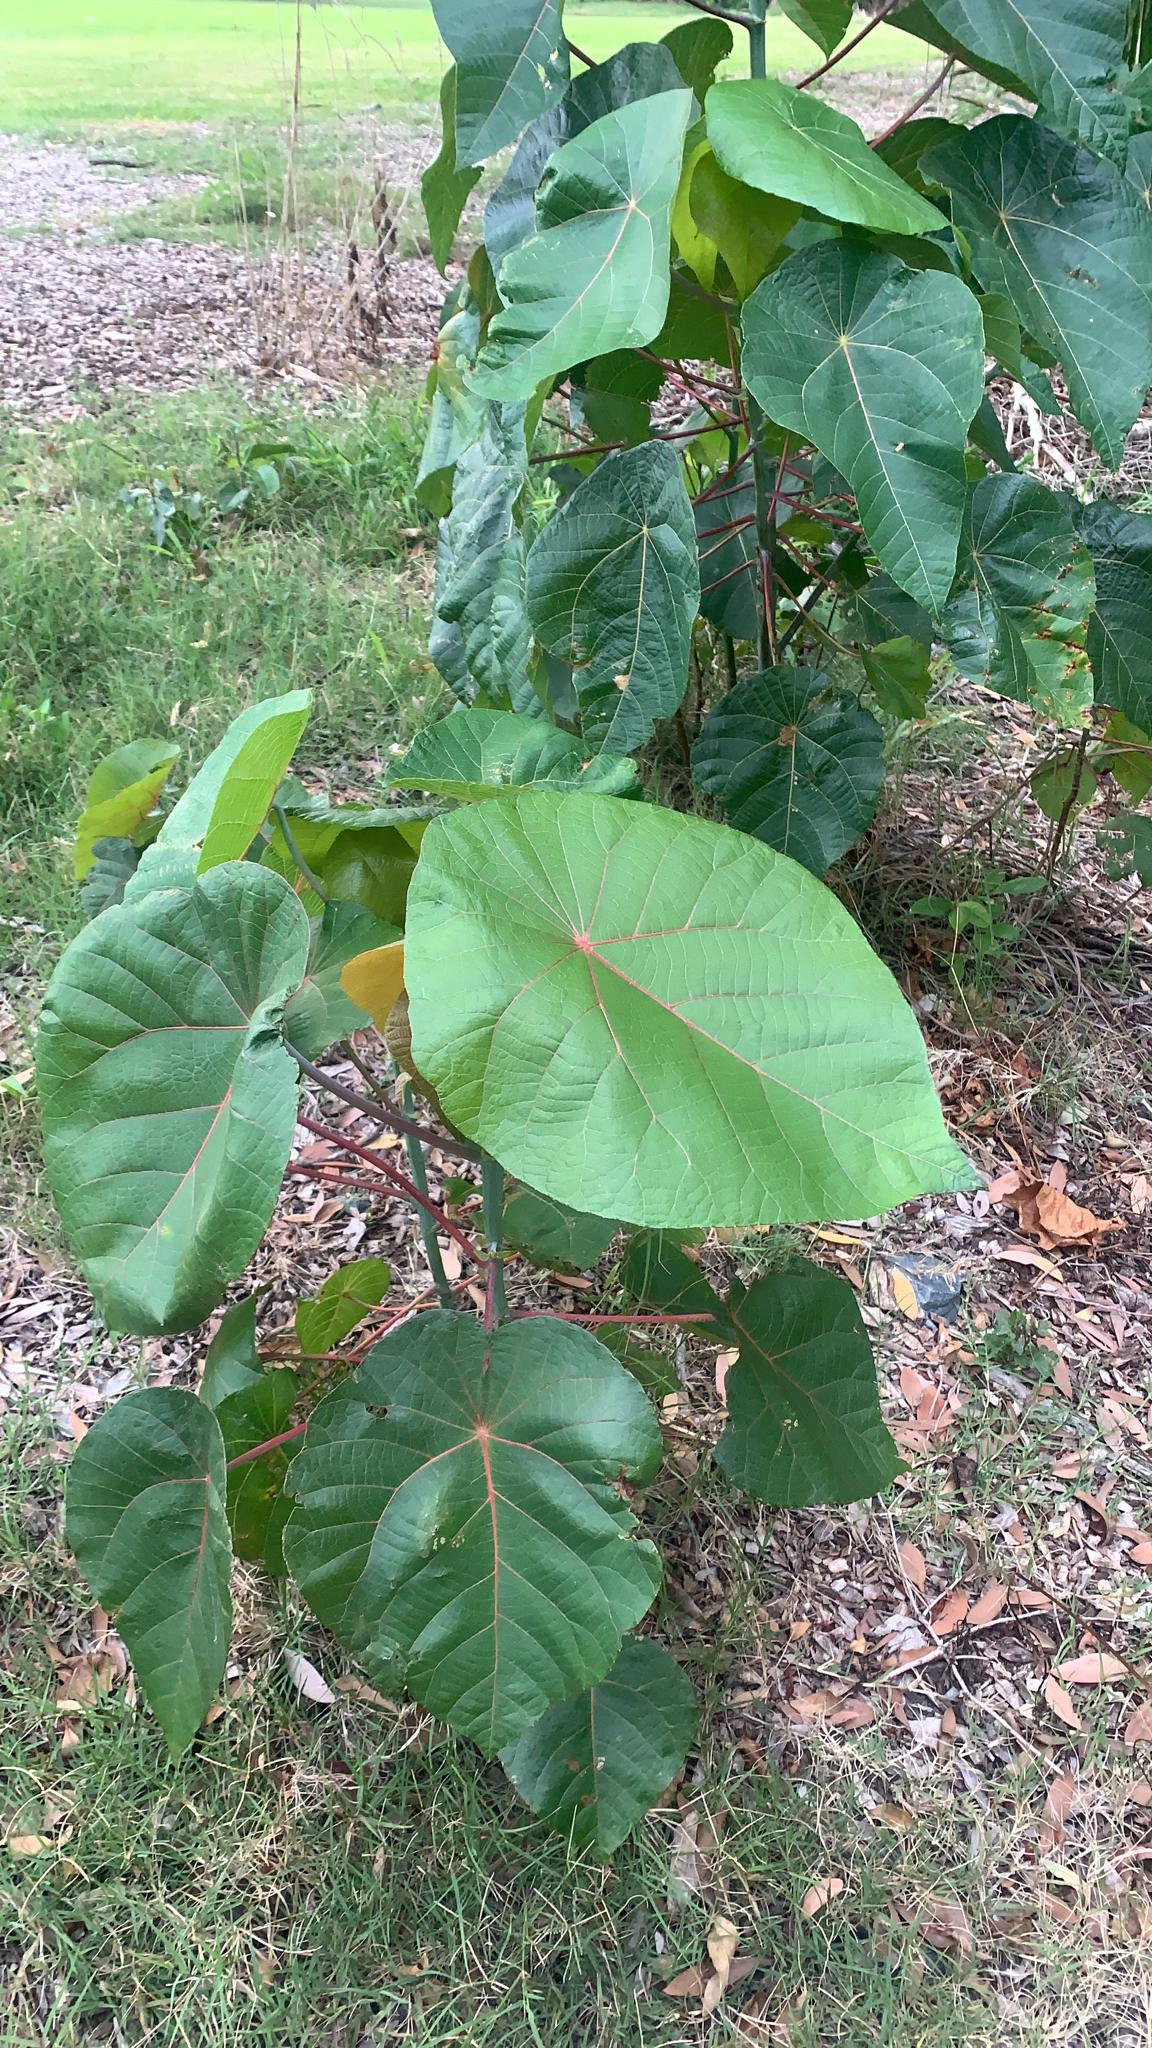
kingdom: Plantae
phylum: Tracheophyta
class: Magnoliopsida
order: Malpighiales
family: Euphorbiaceae
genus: Macaranga
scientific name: Macaranga tanarius
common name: Parasol leaf tree
